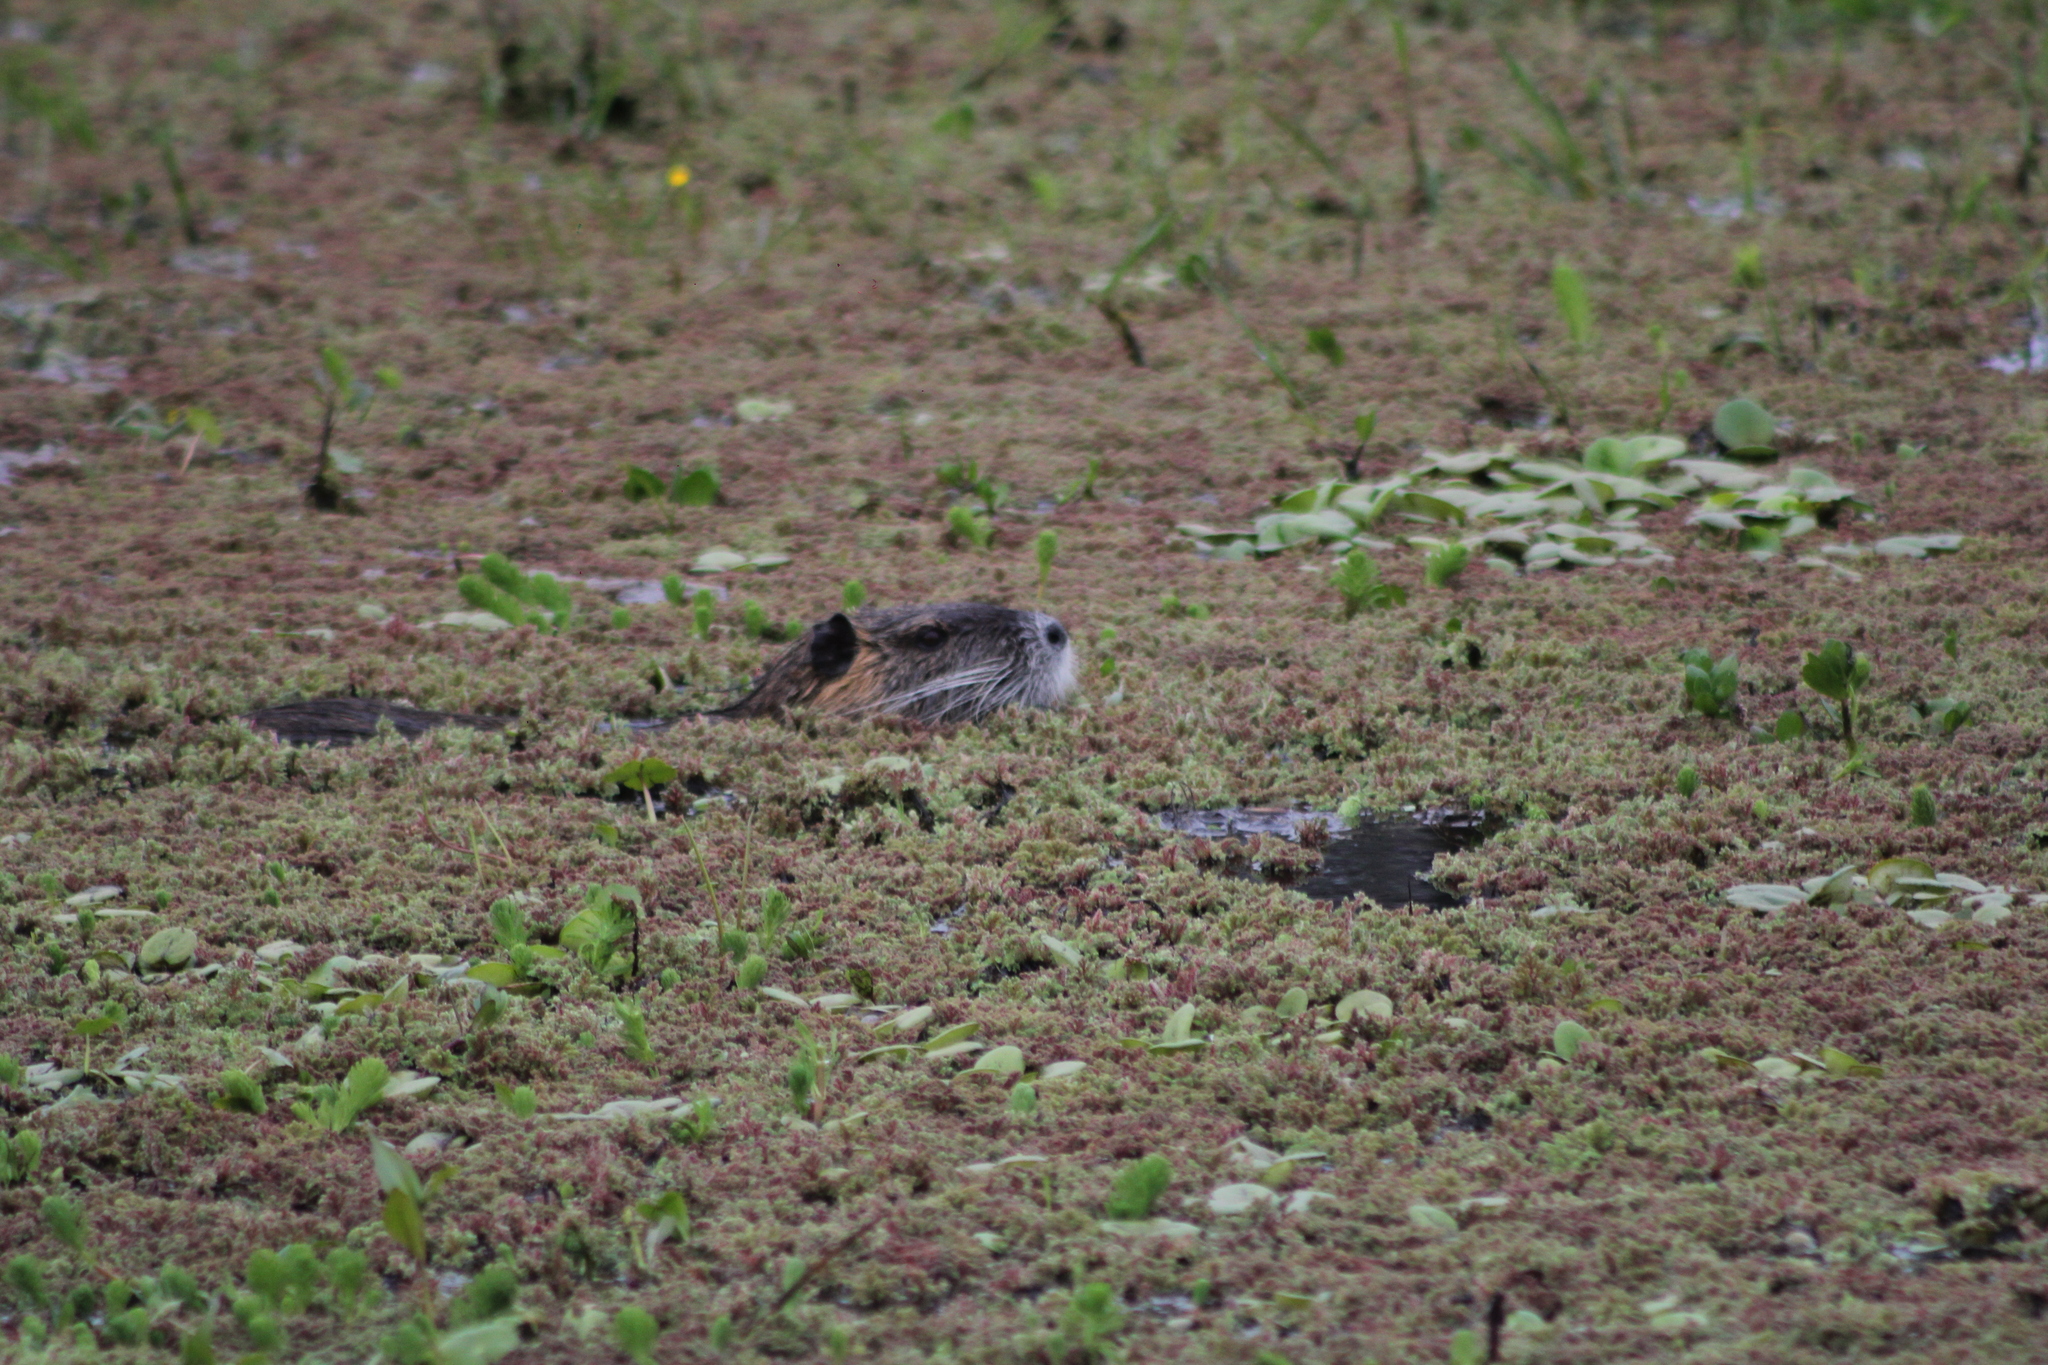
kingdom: Animalia
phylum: Chordata
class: Mammalia
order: Rodentia
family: Myocastoridae
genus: Myocastor
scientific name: Myocastor coypus
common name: Coypu
